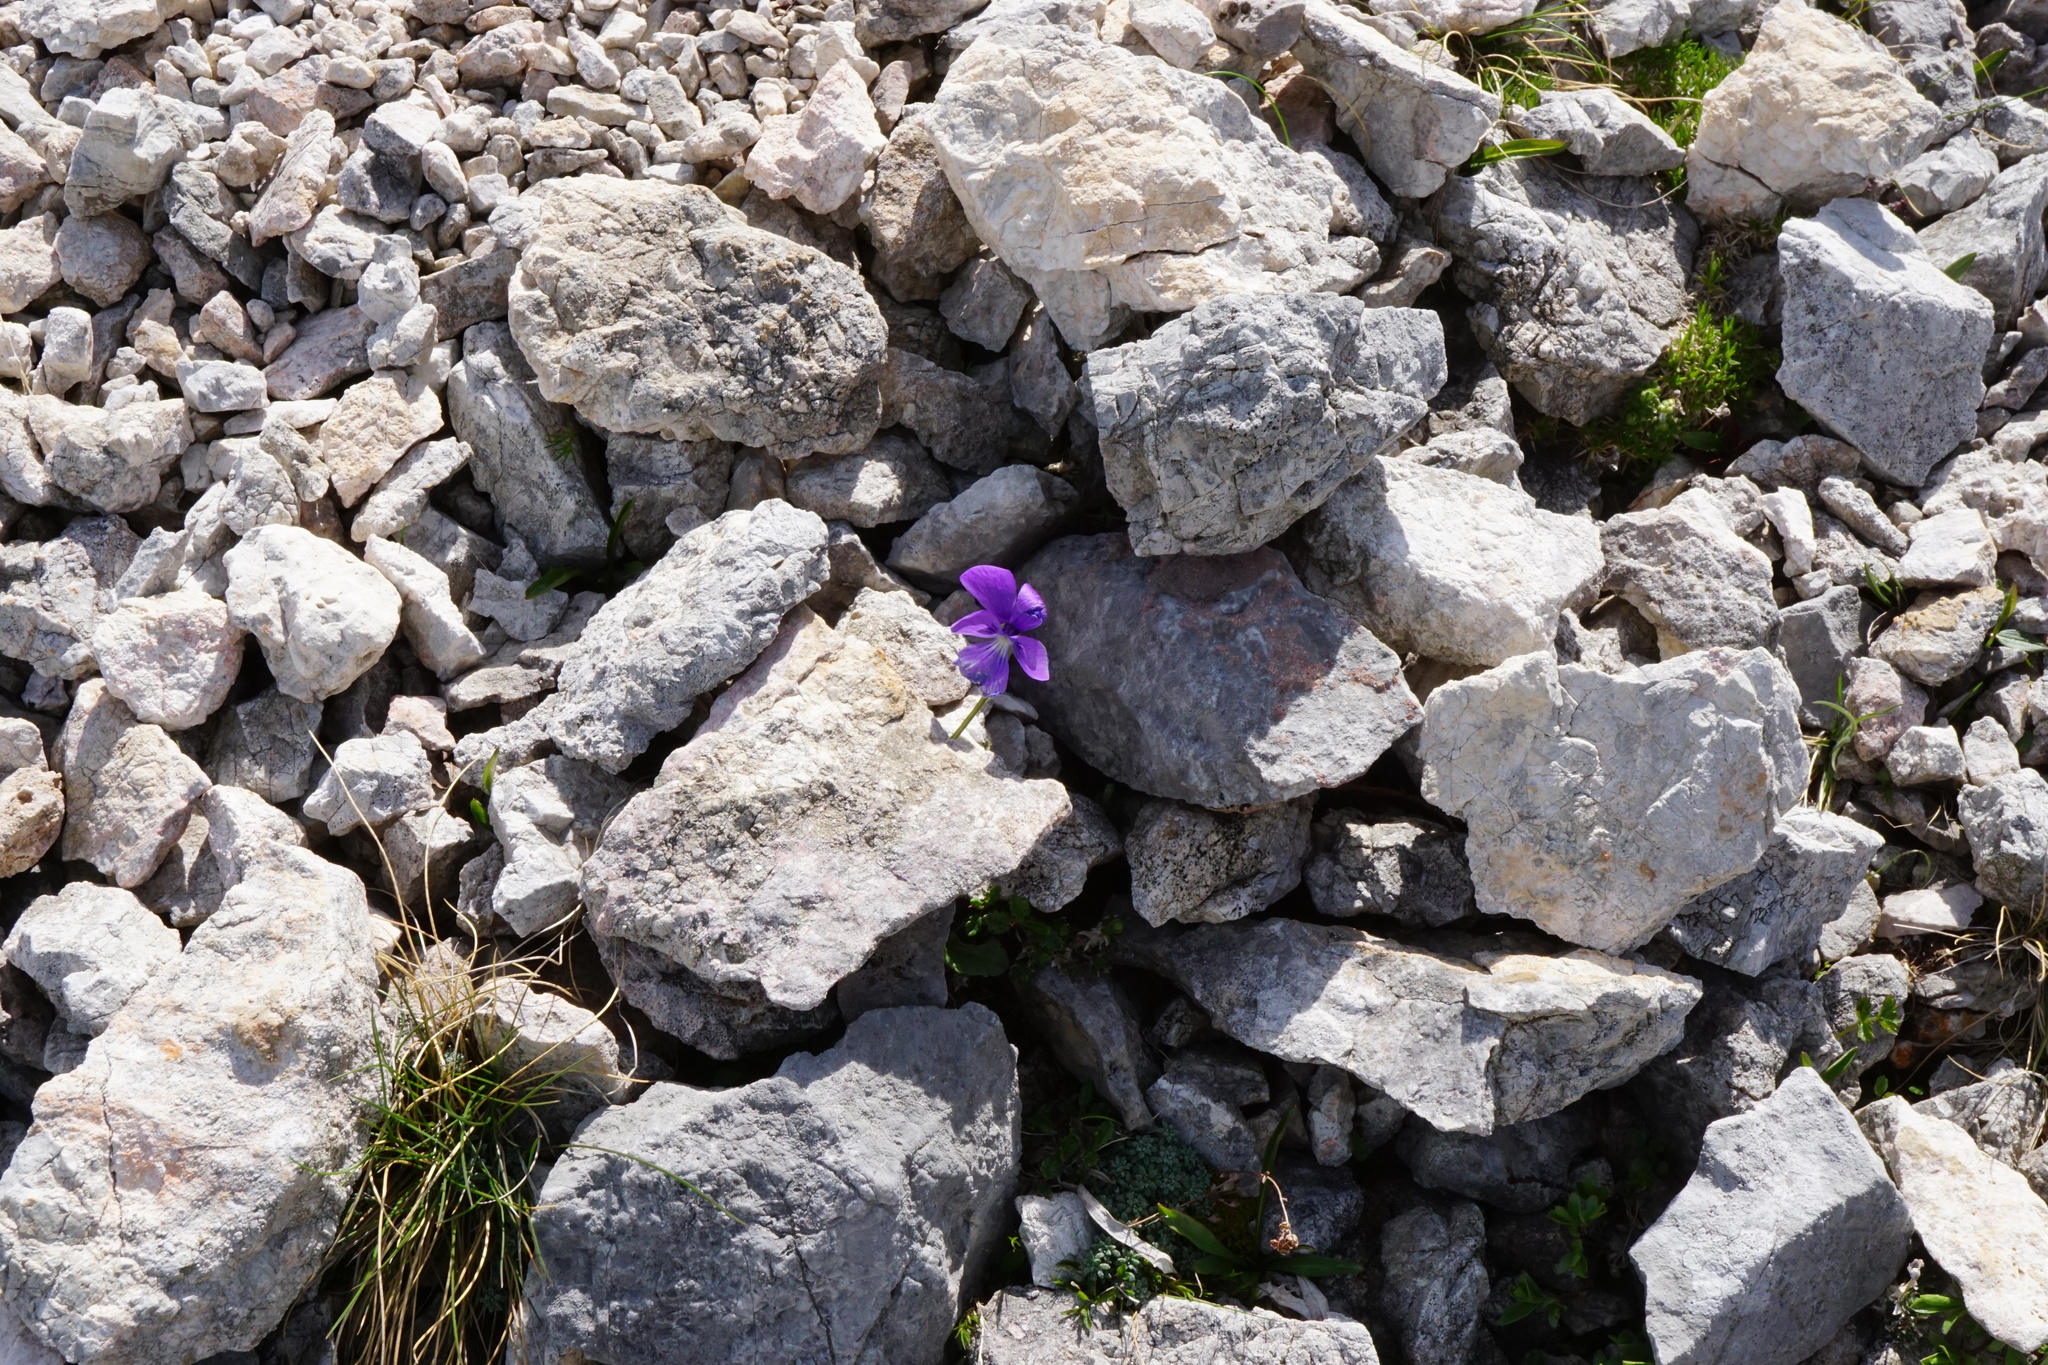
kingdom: Plantae
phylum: Tracheophyta
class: Magnoliopsida
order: Malpighiales
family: Violaceae
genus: Viola
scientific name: Viola alpina
